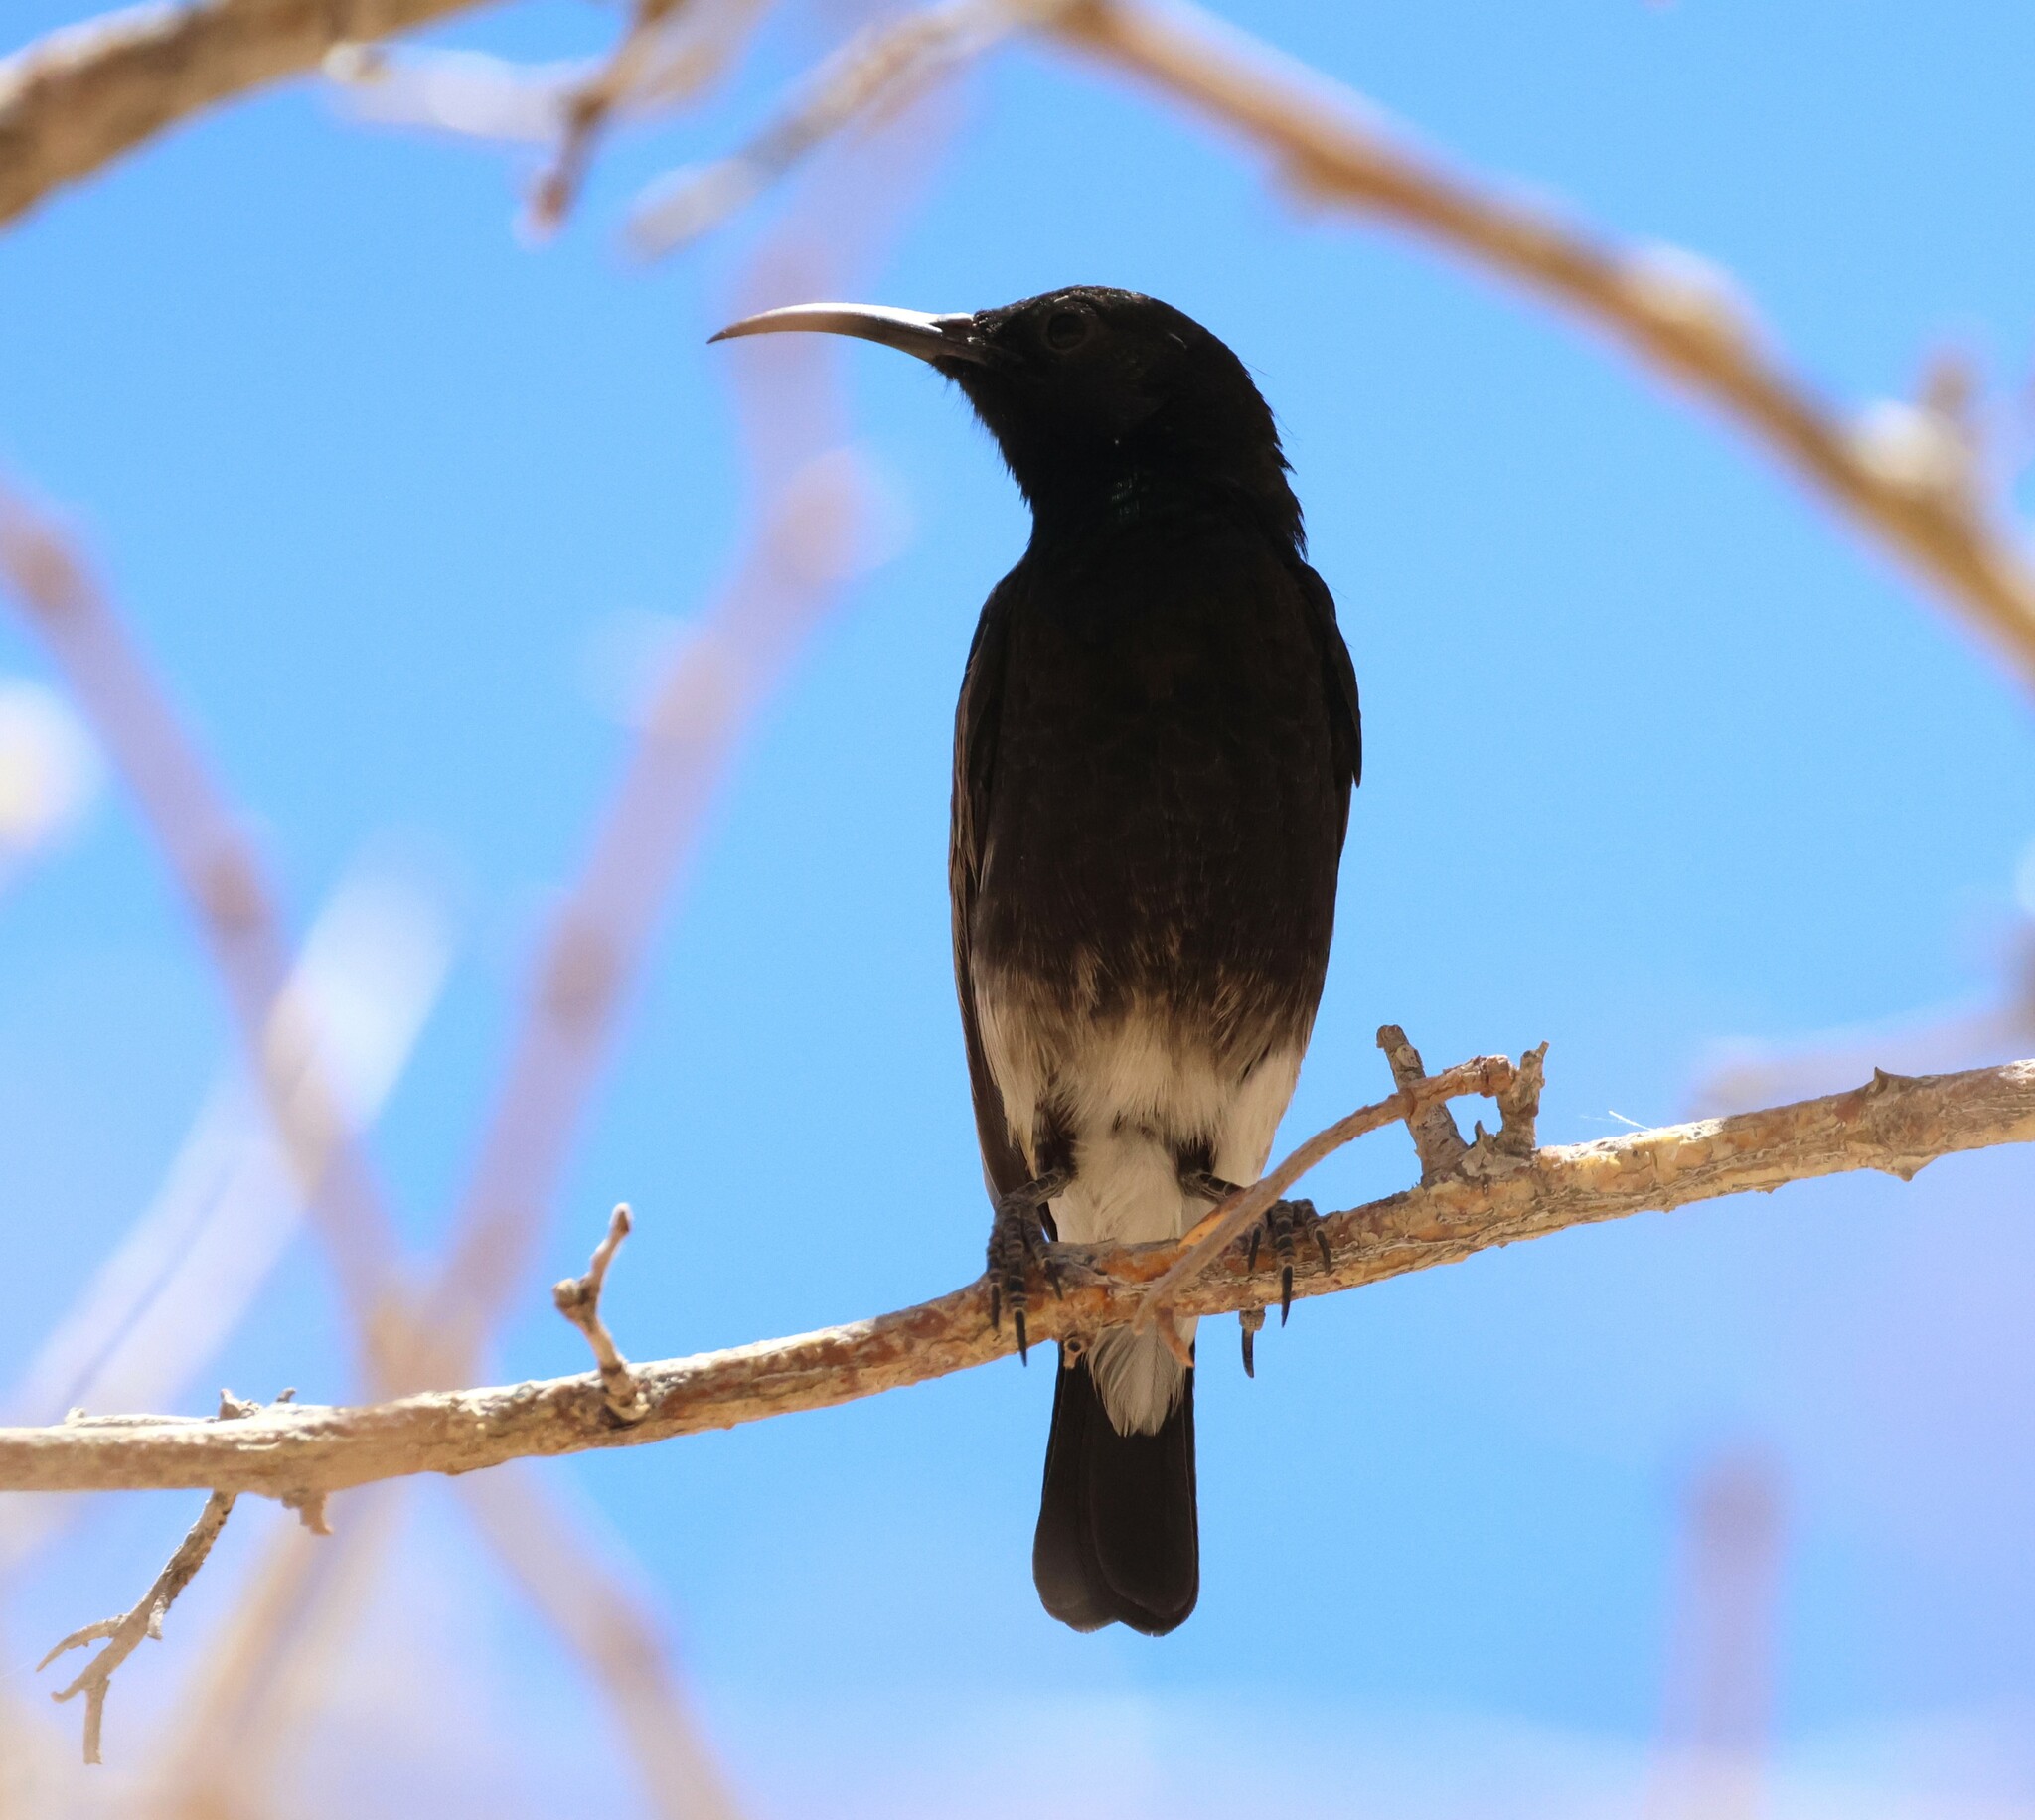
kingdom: Animalia
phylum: Chordata
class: Aves
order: Passeriformes
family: Nectariniidae
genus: Cinnyris
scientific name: Cinnyris fuscus
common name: Dusky sunbird
